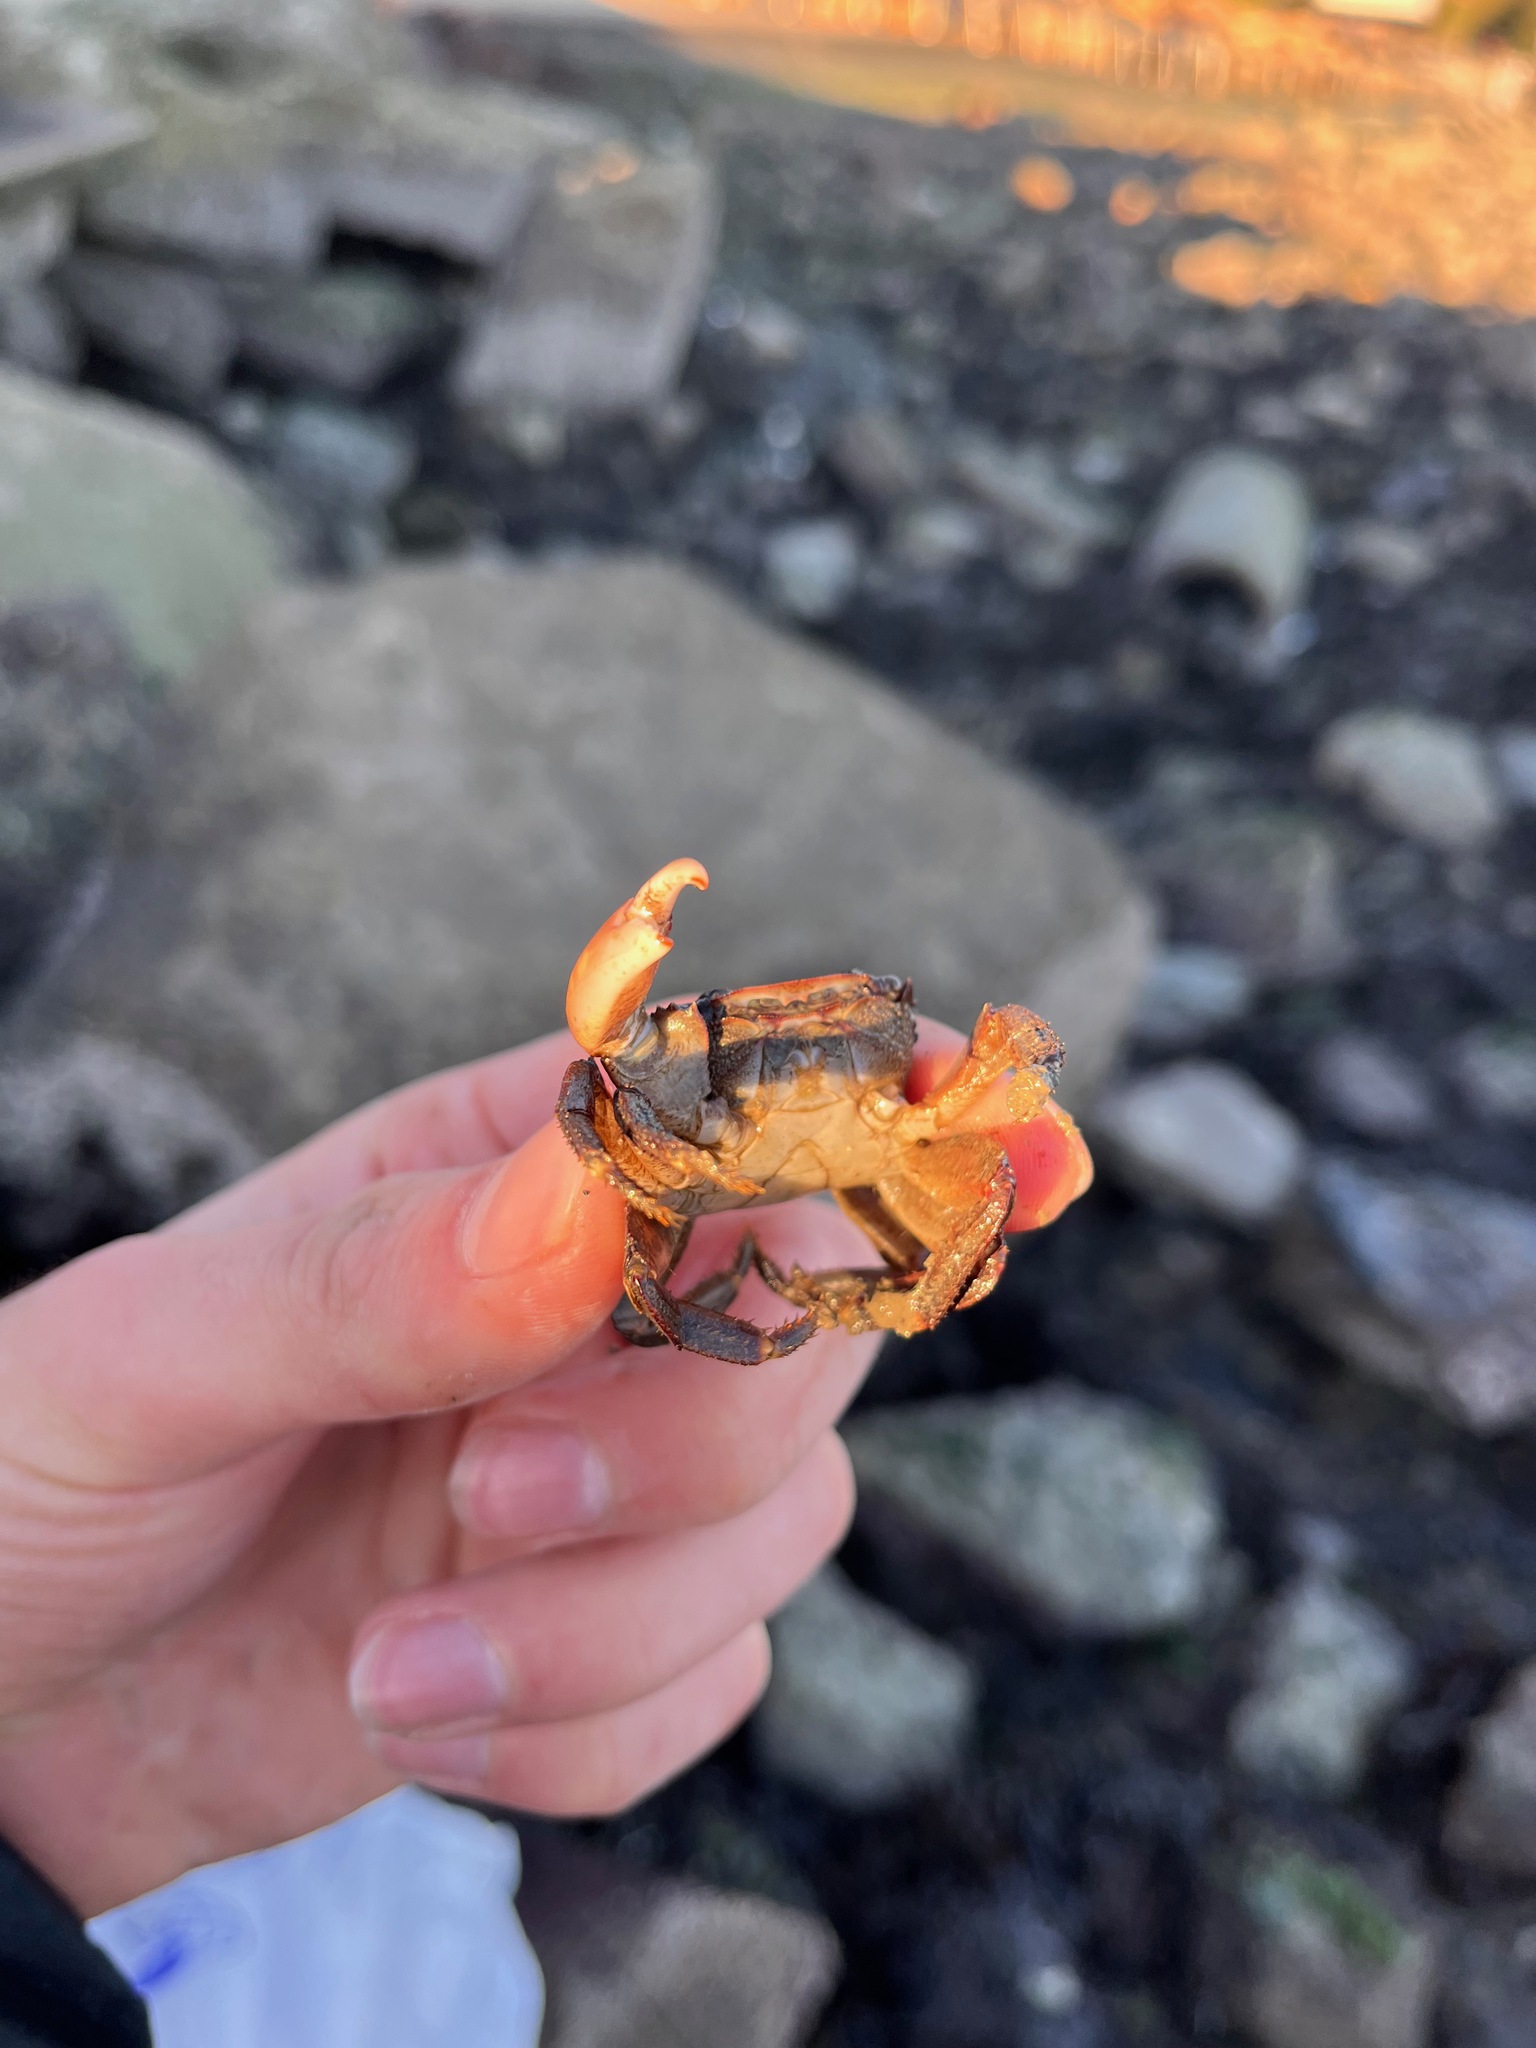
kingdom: Animalia
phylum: Arthropoda
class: Malacostraca
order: Decapoda
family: Grapsidae
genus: Pachygrapsus
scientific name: Pachygrapsus crassipes
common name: Striped shore crab
